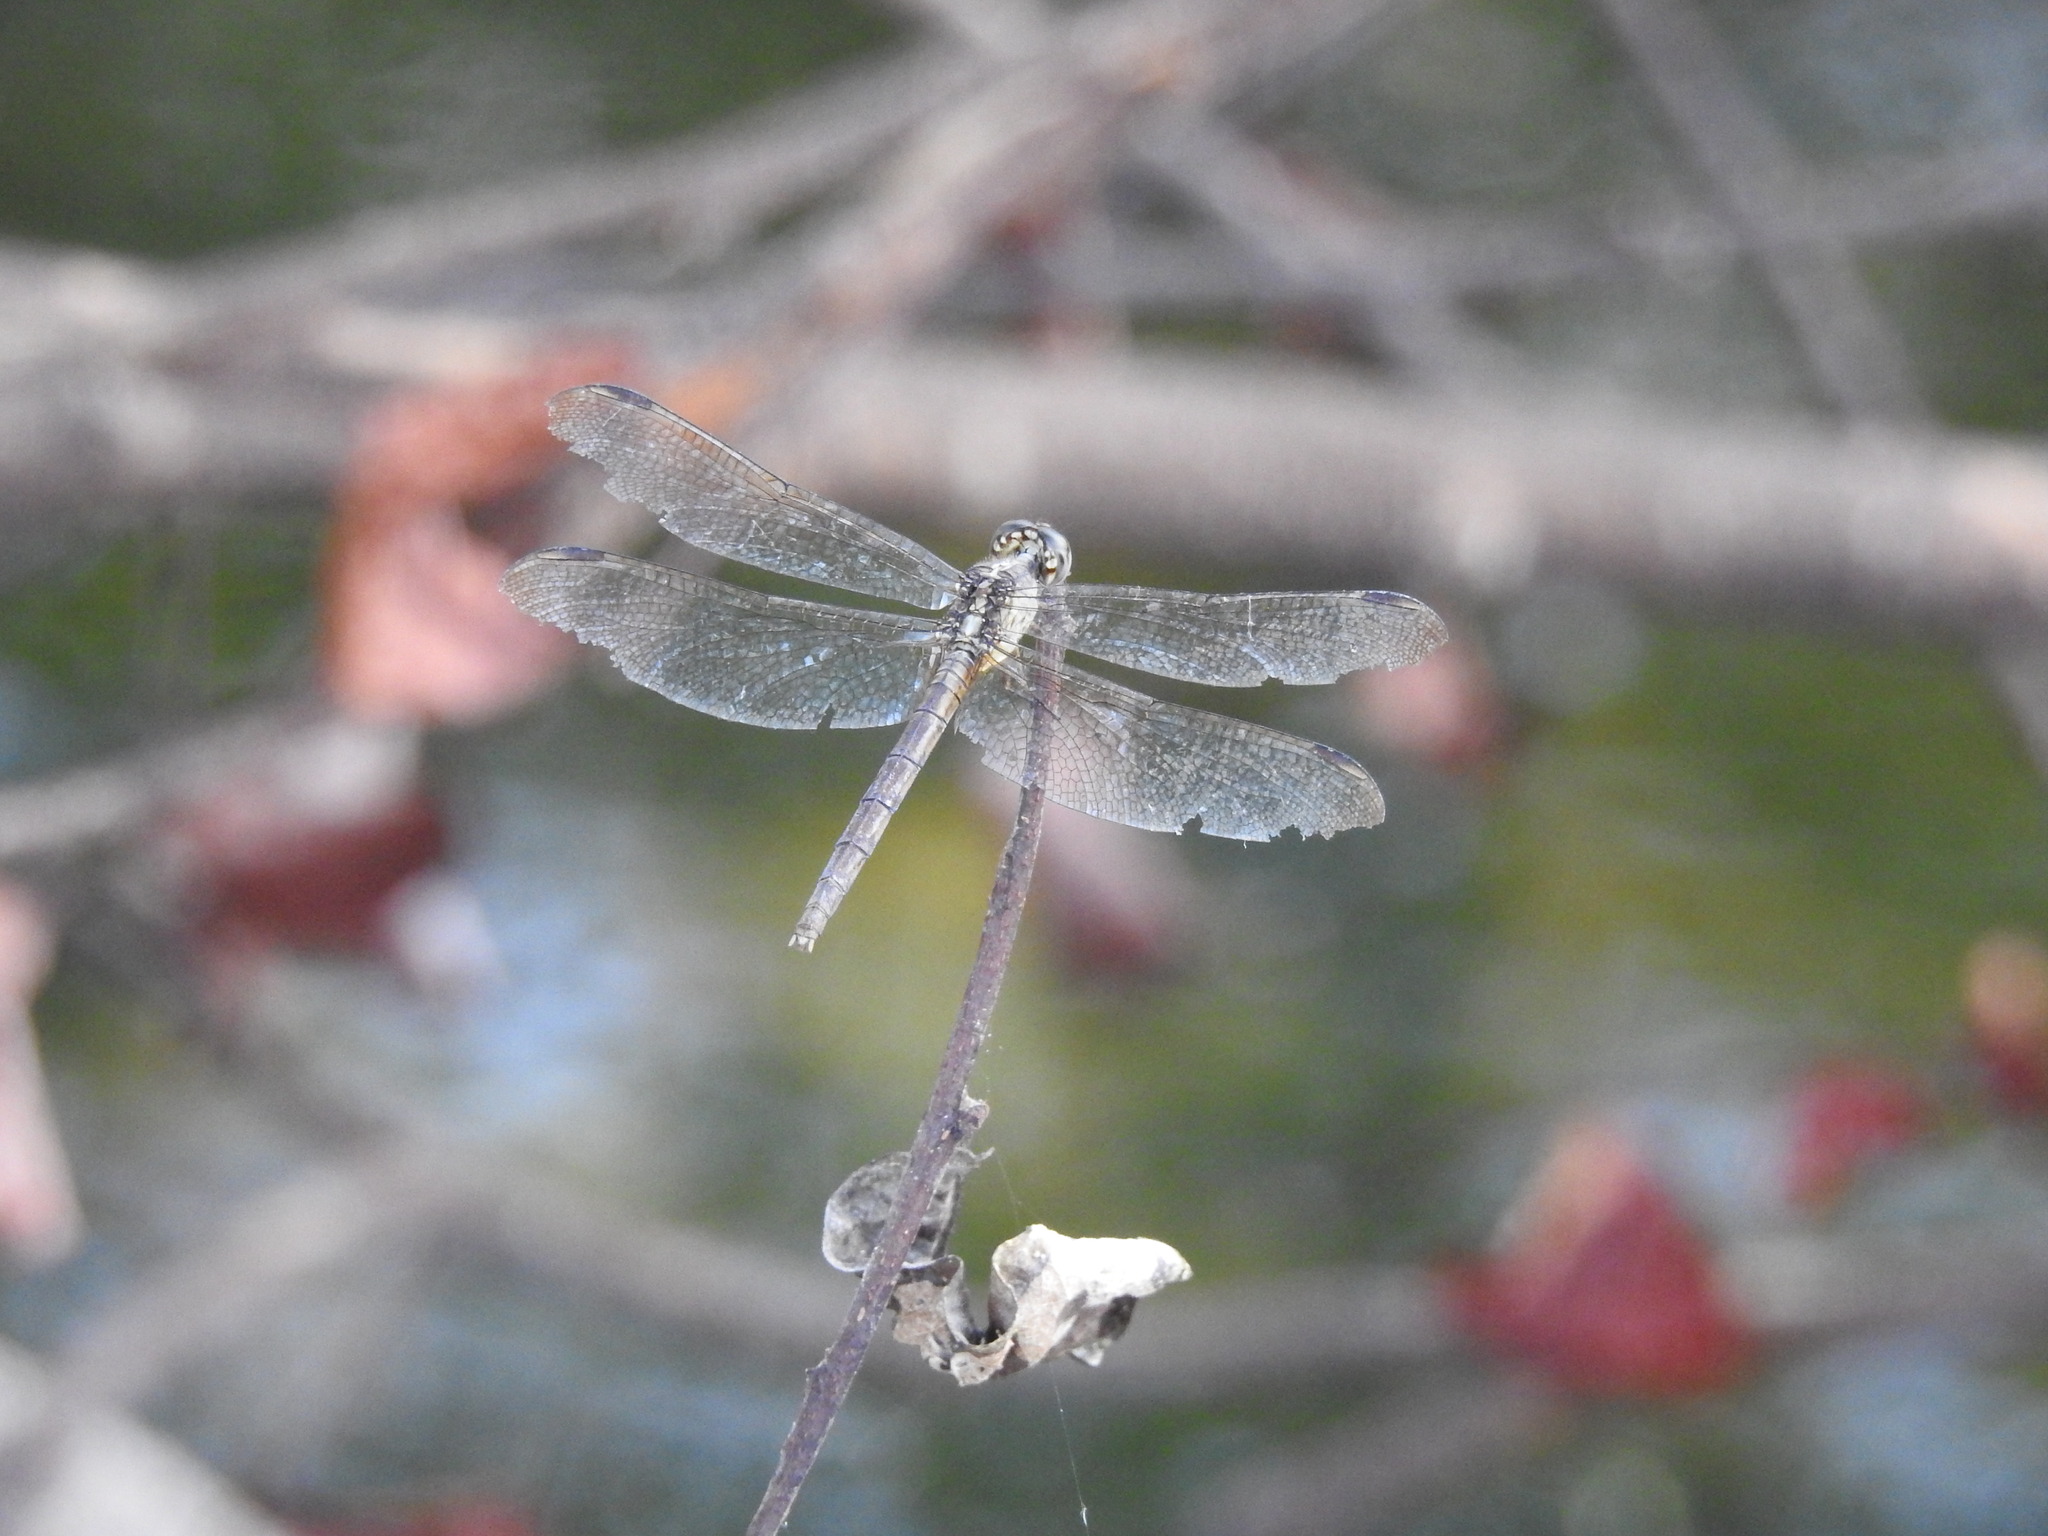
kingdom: Animalia
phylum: Arthropoda
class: Insecta
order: Odonata
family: Libellulidae
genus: Erythrodiplax
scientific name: Erythrodiplax umbrata
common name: Band-winged dragonlet
